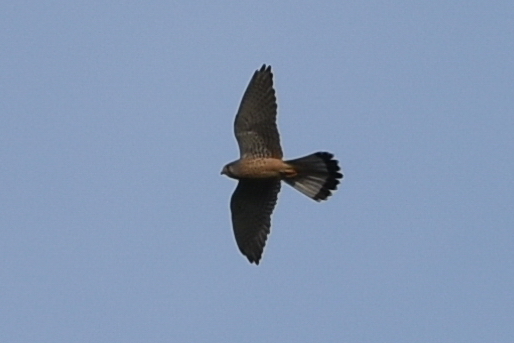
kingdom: Animalia
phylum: Chordata
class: Aves
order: Falconiformes
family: Falconidae
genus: Falco
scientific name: Falco tinnunculus
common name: Common kestrel
